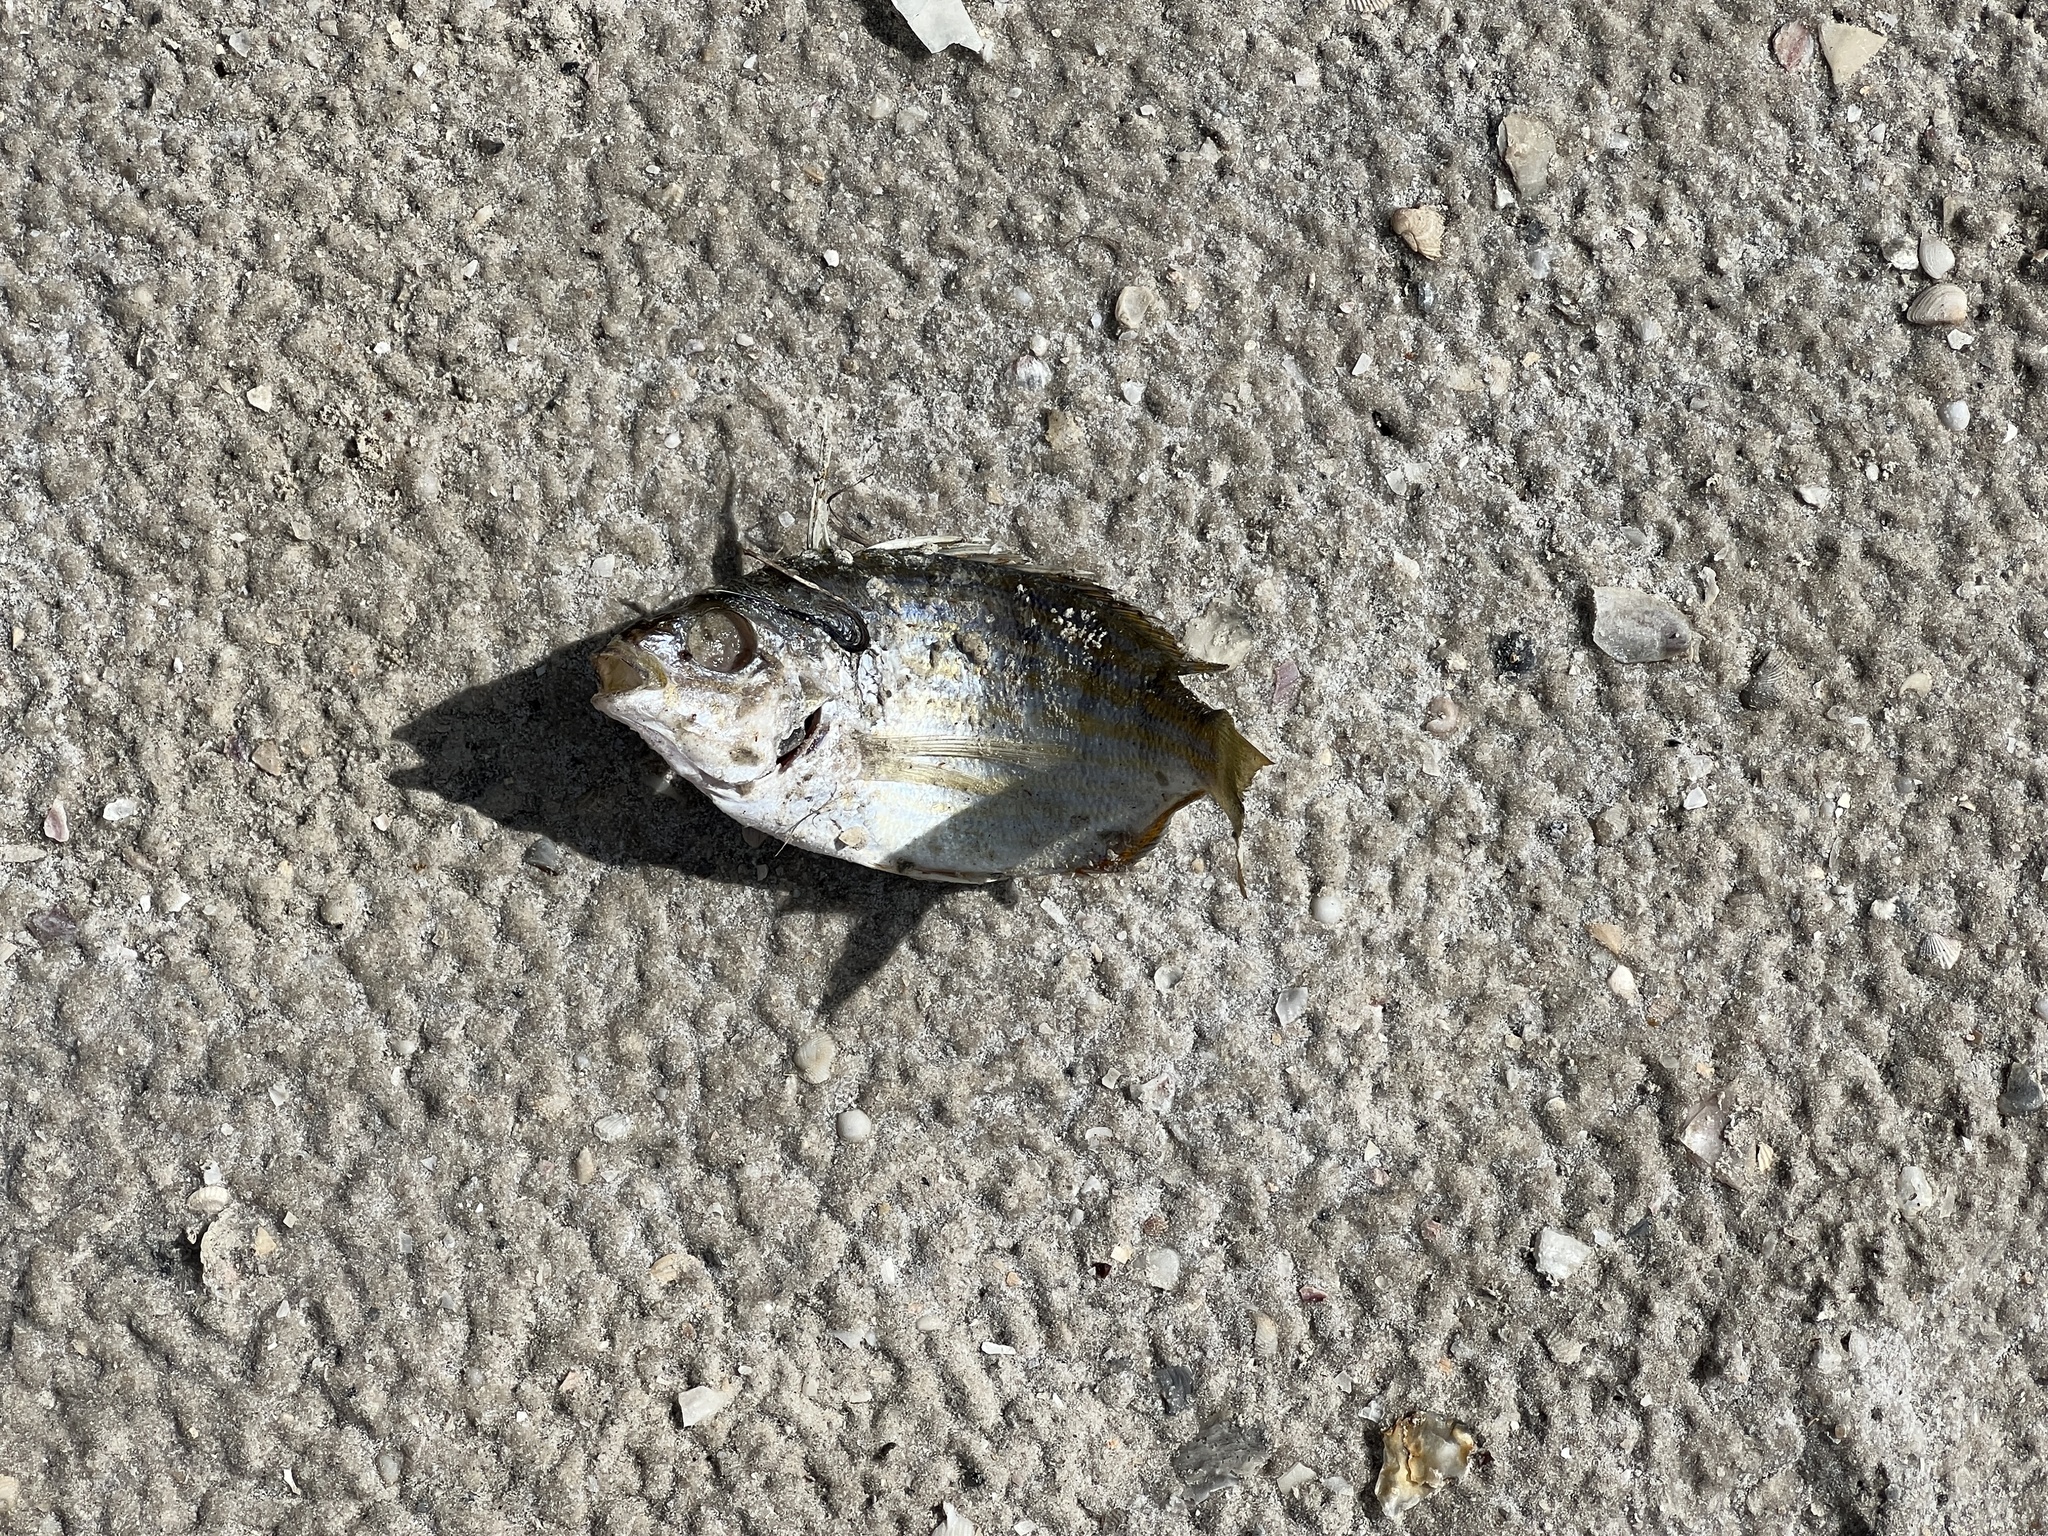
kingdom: Animalia
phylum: Chordata
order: Perciformes
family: Sparidae
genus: Lagodon
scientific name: Lagodon rhomboides
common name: Pinfish
